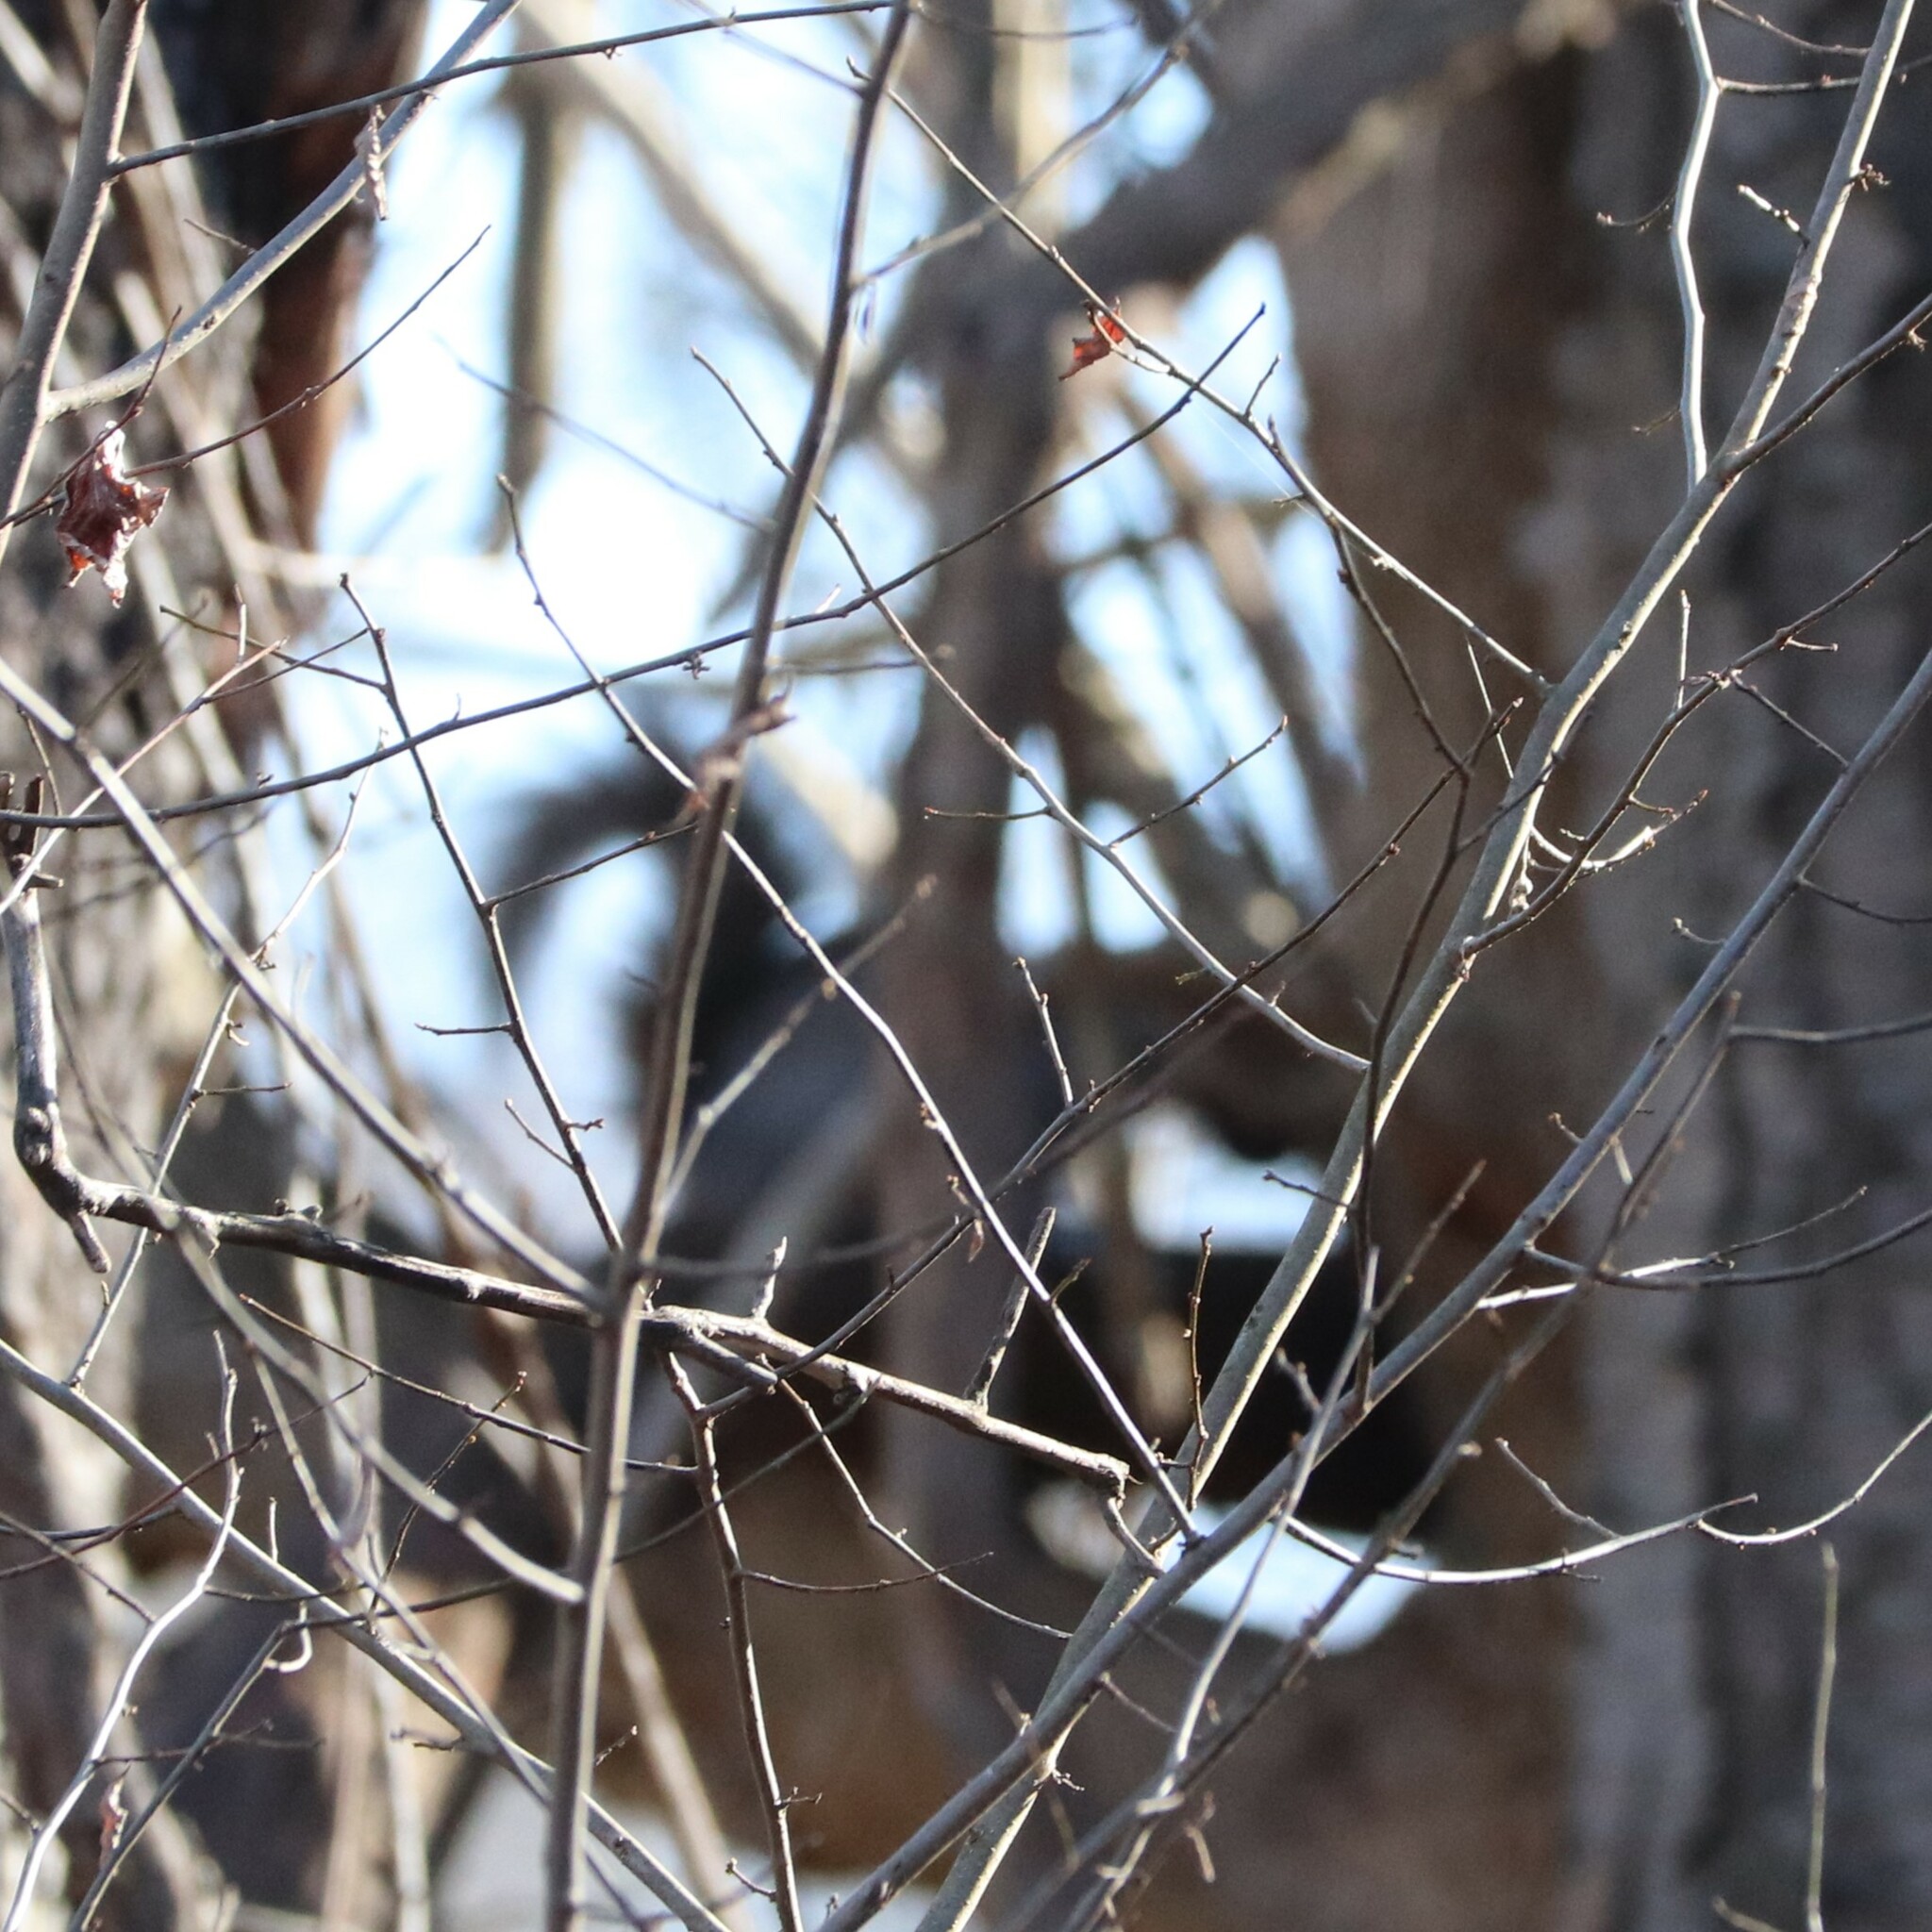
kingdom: Animalia
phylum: Chordata
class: Mammalia
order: Rodentia
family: Sciuridae
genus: Sciurus
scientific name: Sciurus carolinensis
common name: Eastern gray squirrel
